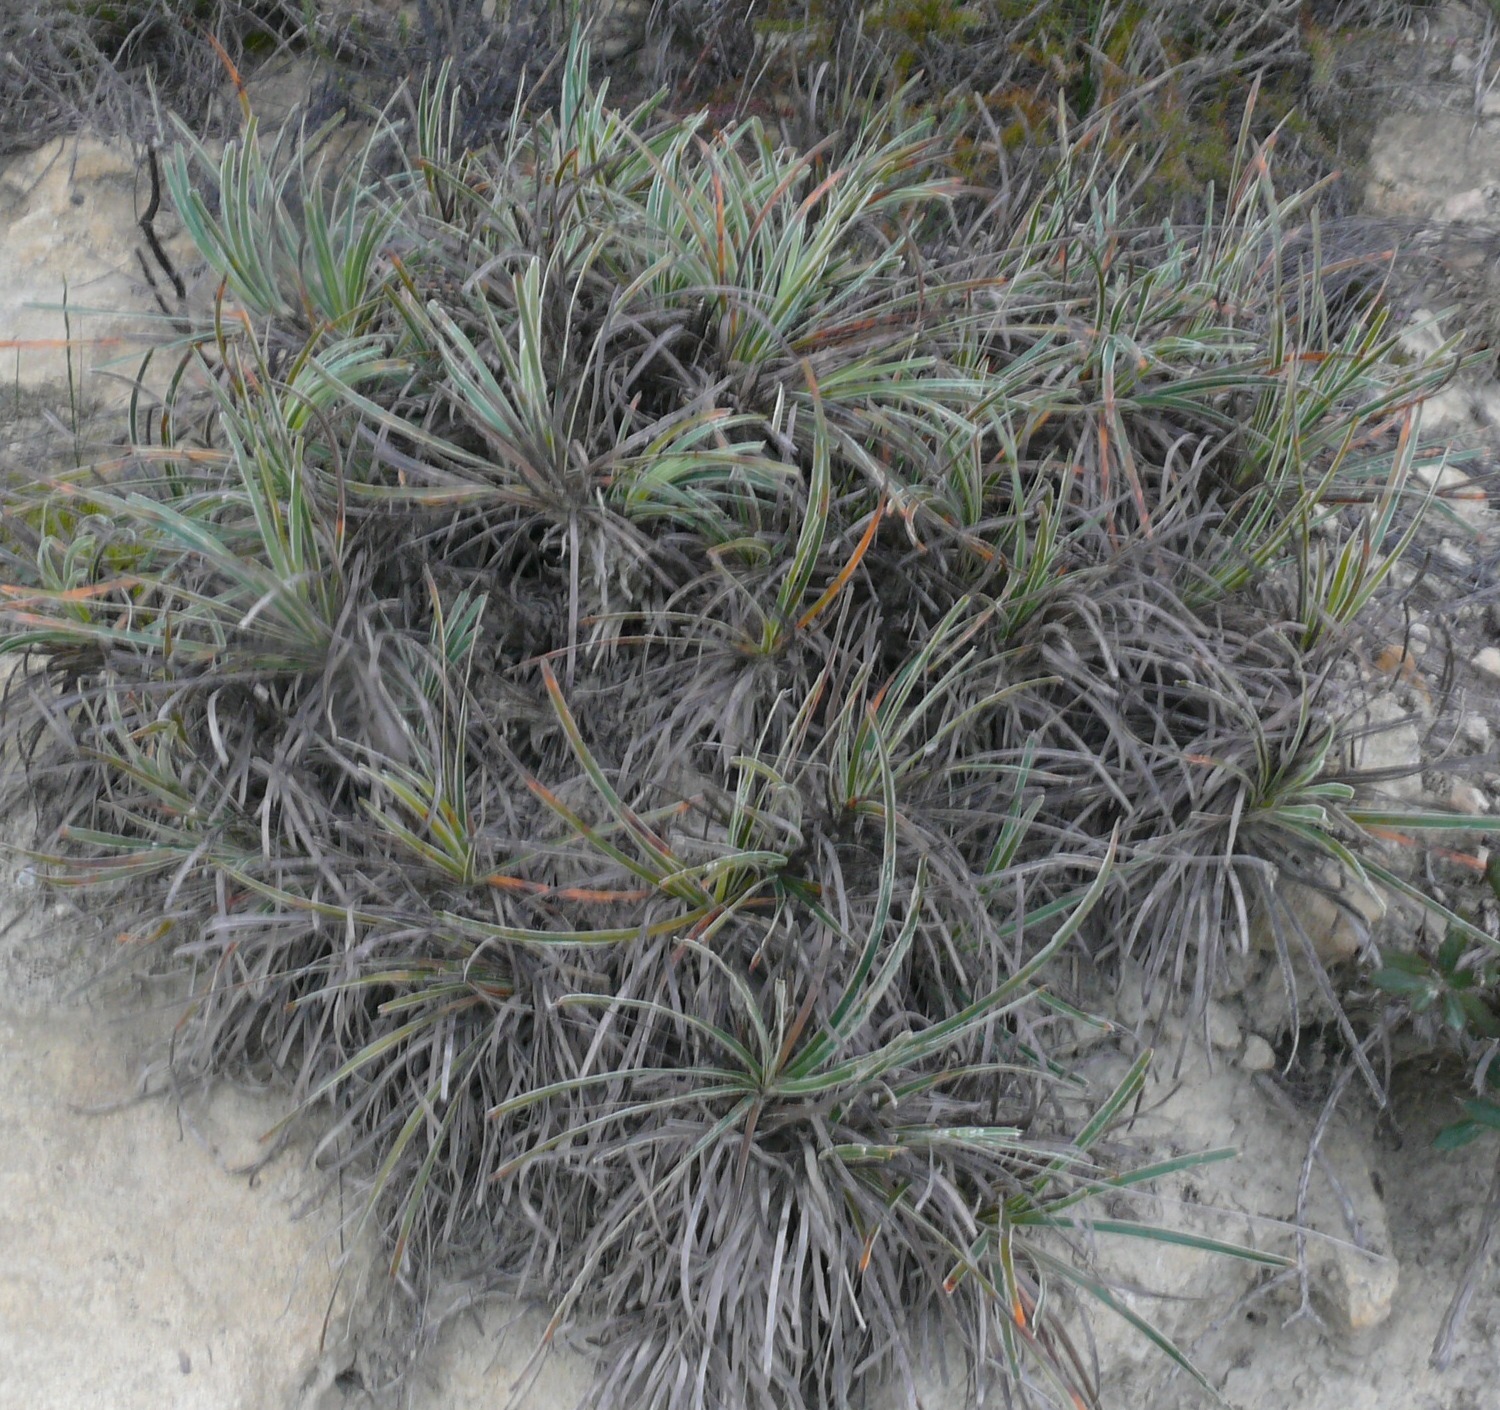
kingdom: Plantae
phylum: Tracheophyta
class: Liliopsida
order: Poales
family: Cyperaceae
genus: Ficinia
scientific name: Ficinia truncata
